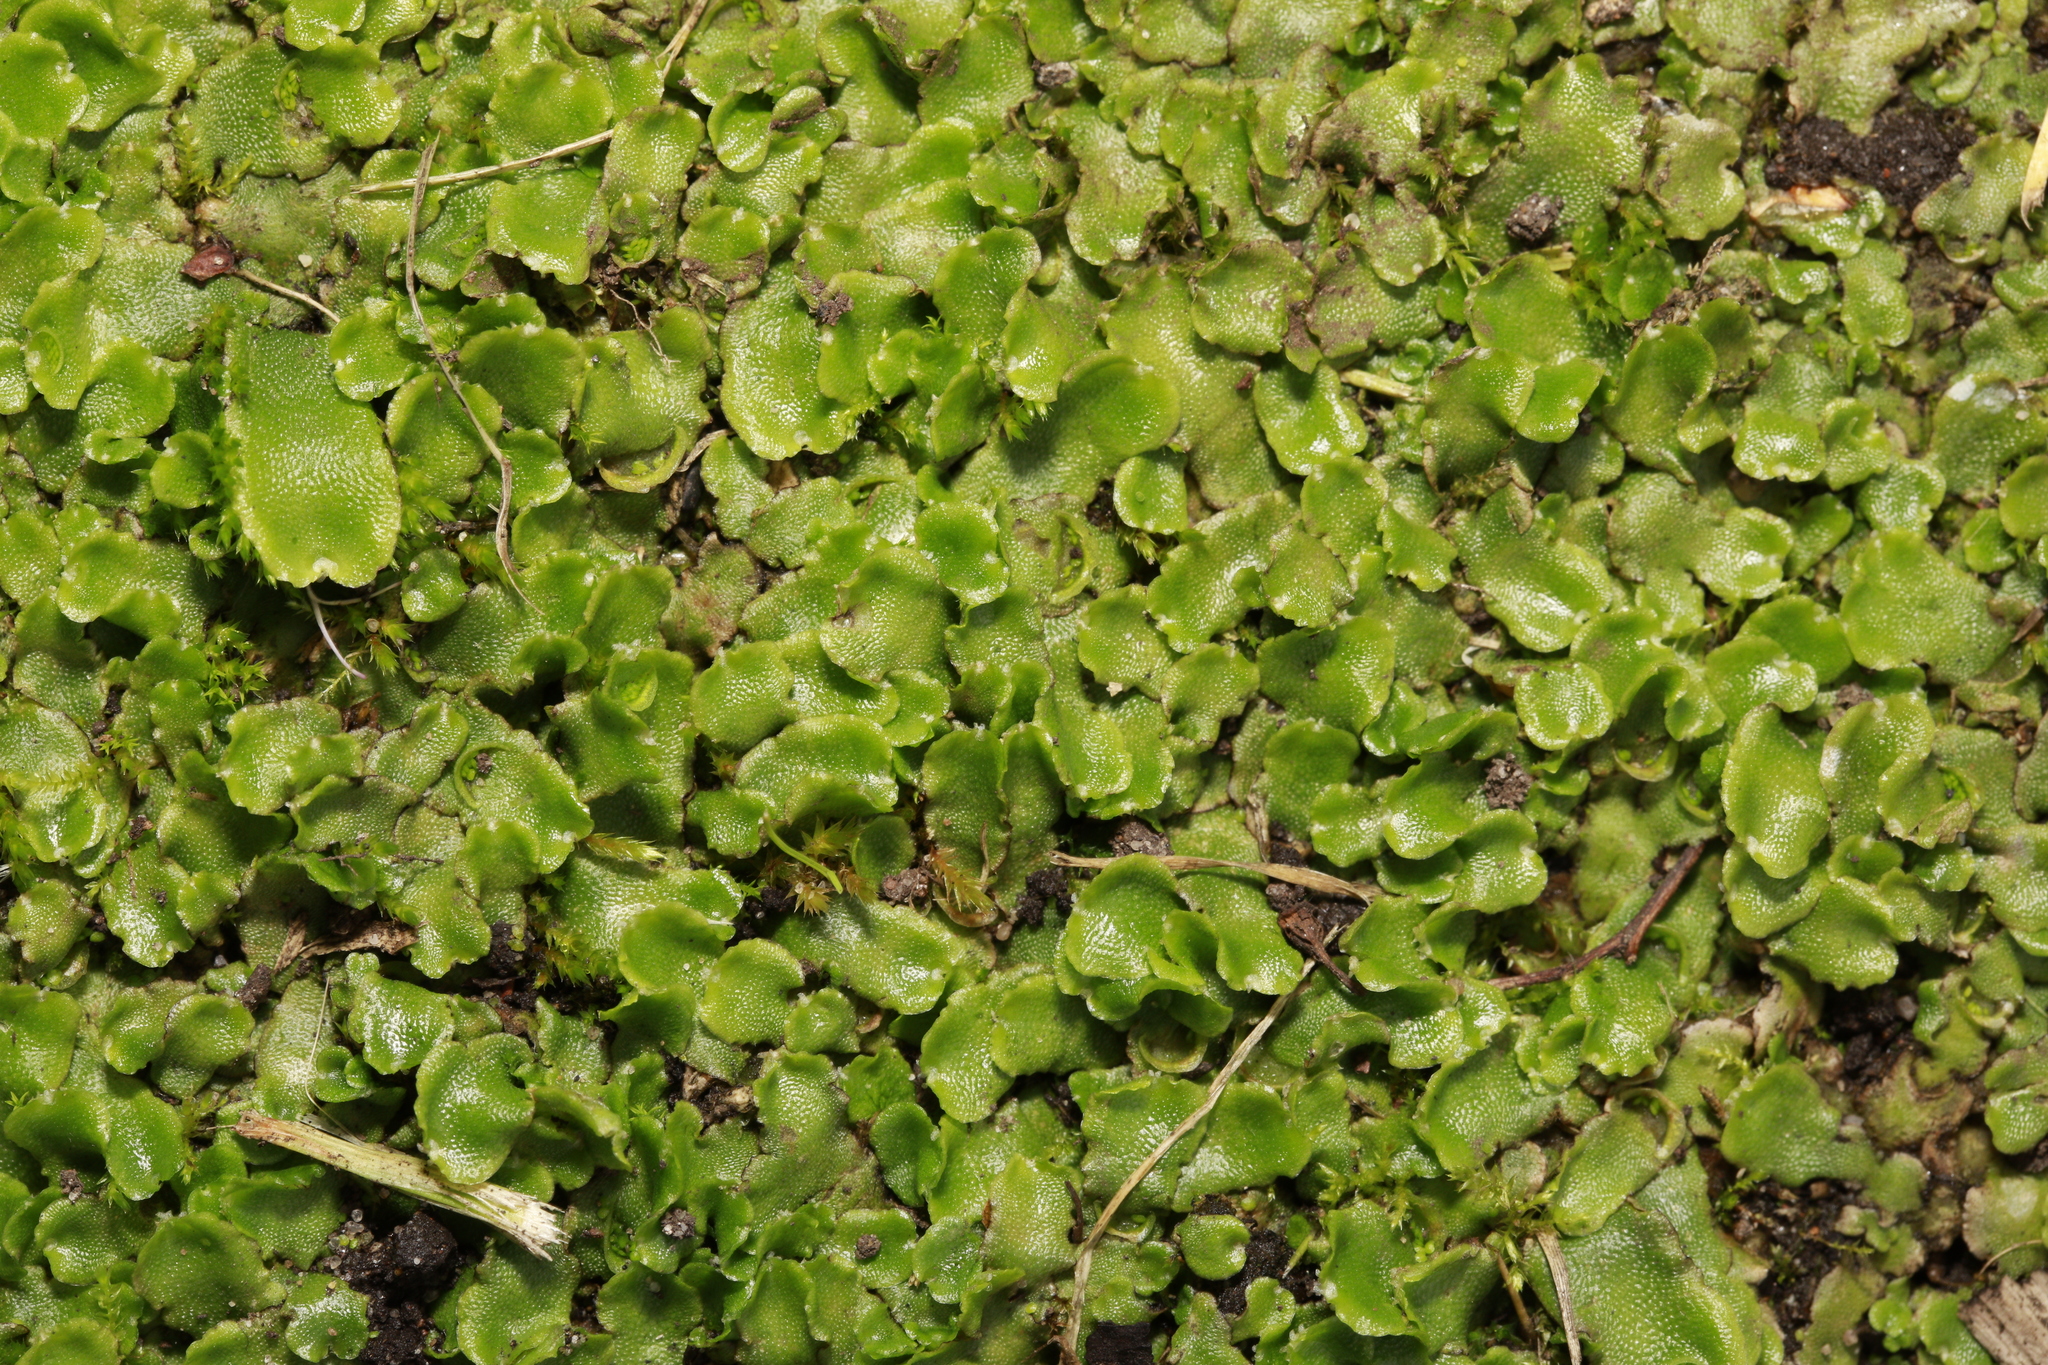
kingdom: Plantae
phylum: Marchantiophyta
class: Marchantiopsida
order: Lunulariales
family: Lunulariaceae
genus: Lunularia
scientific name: Lunularia cruciata
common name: Crescent-cup liverwort
